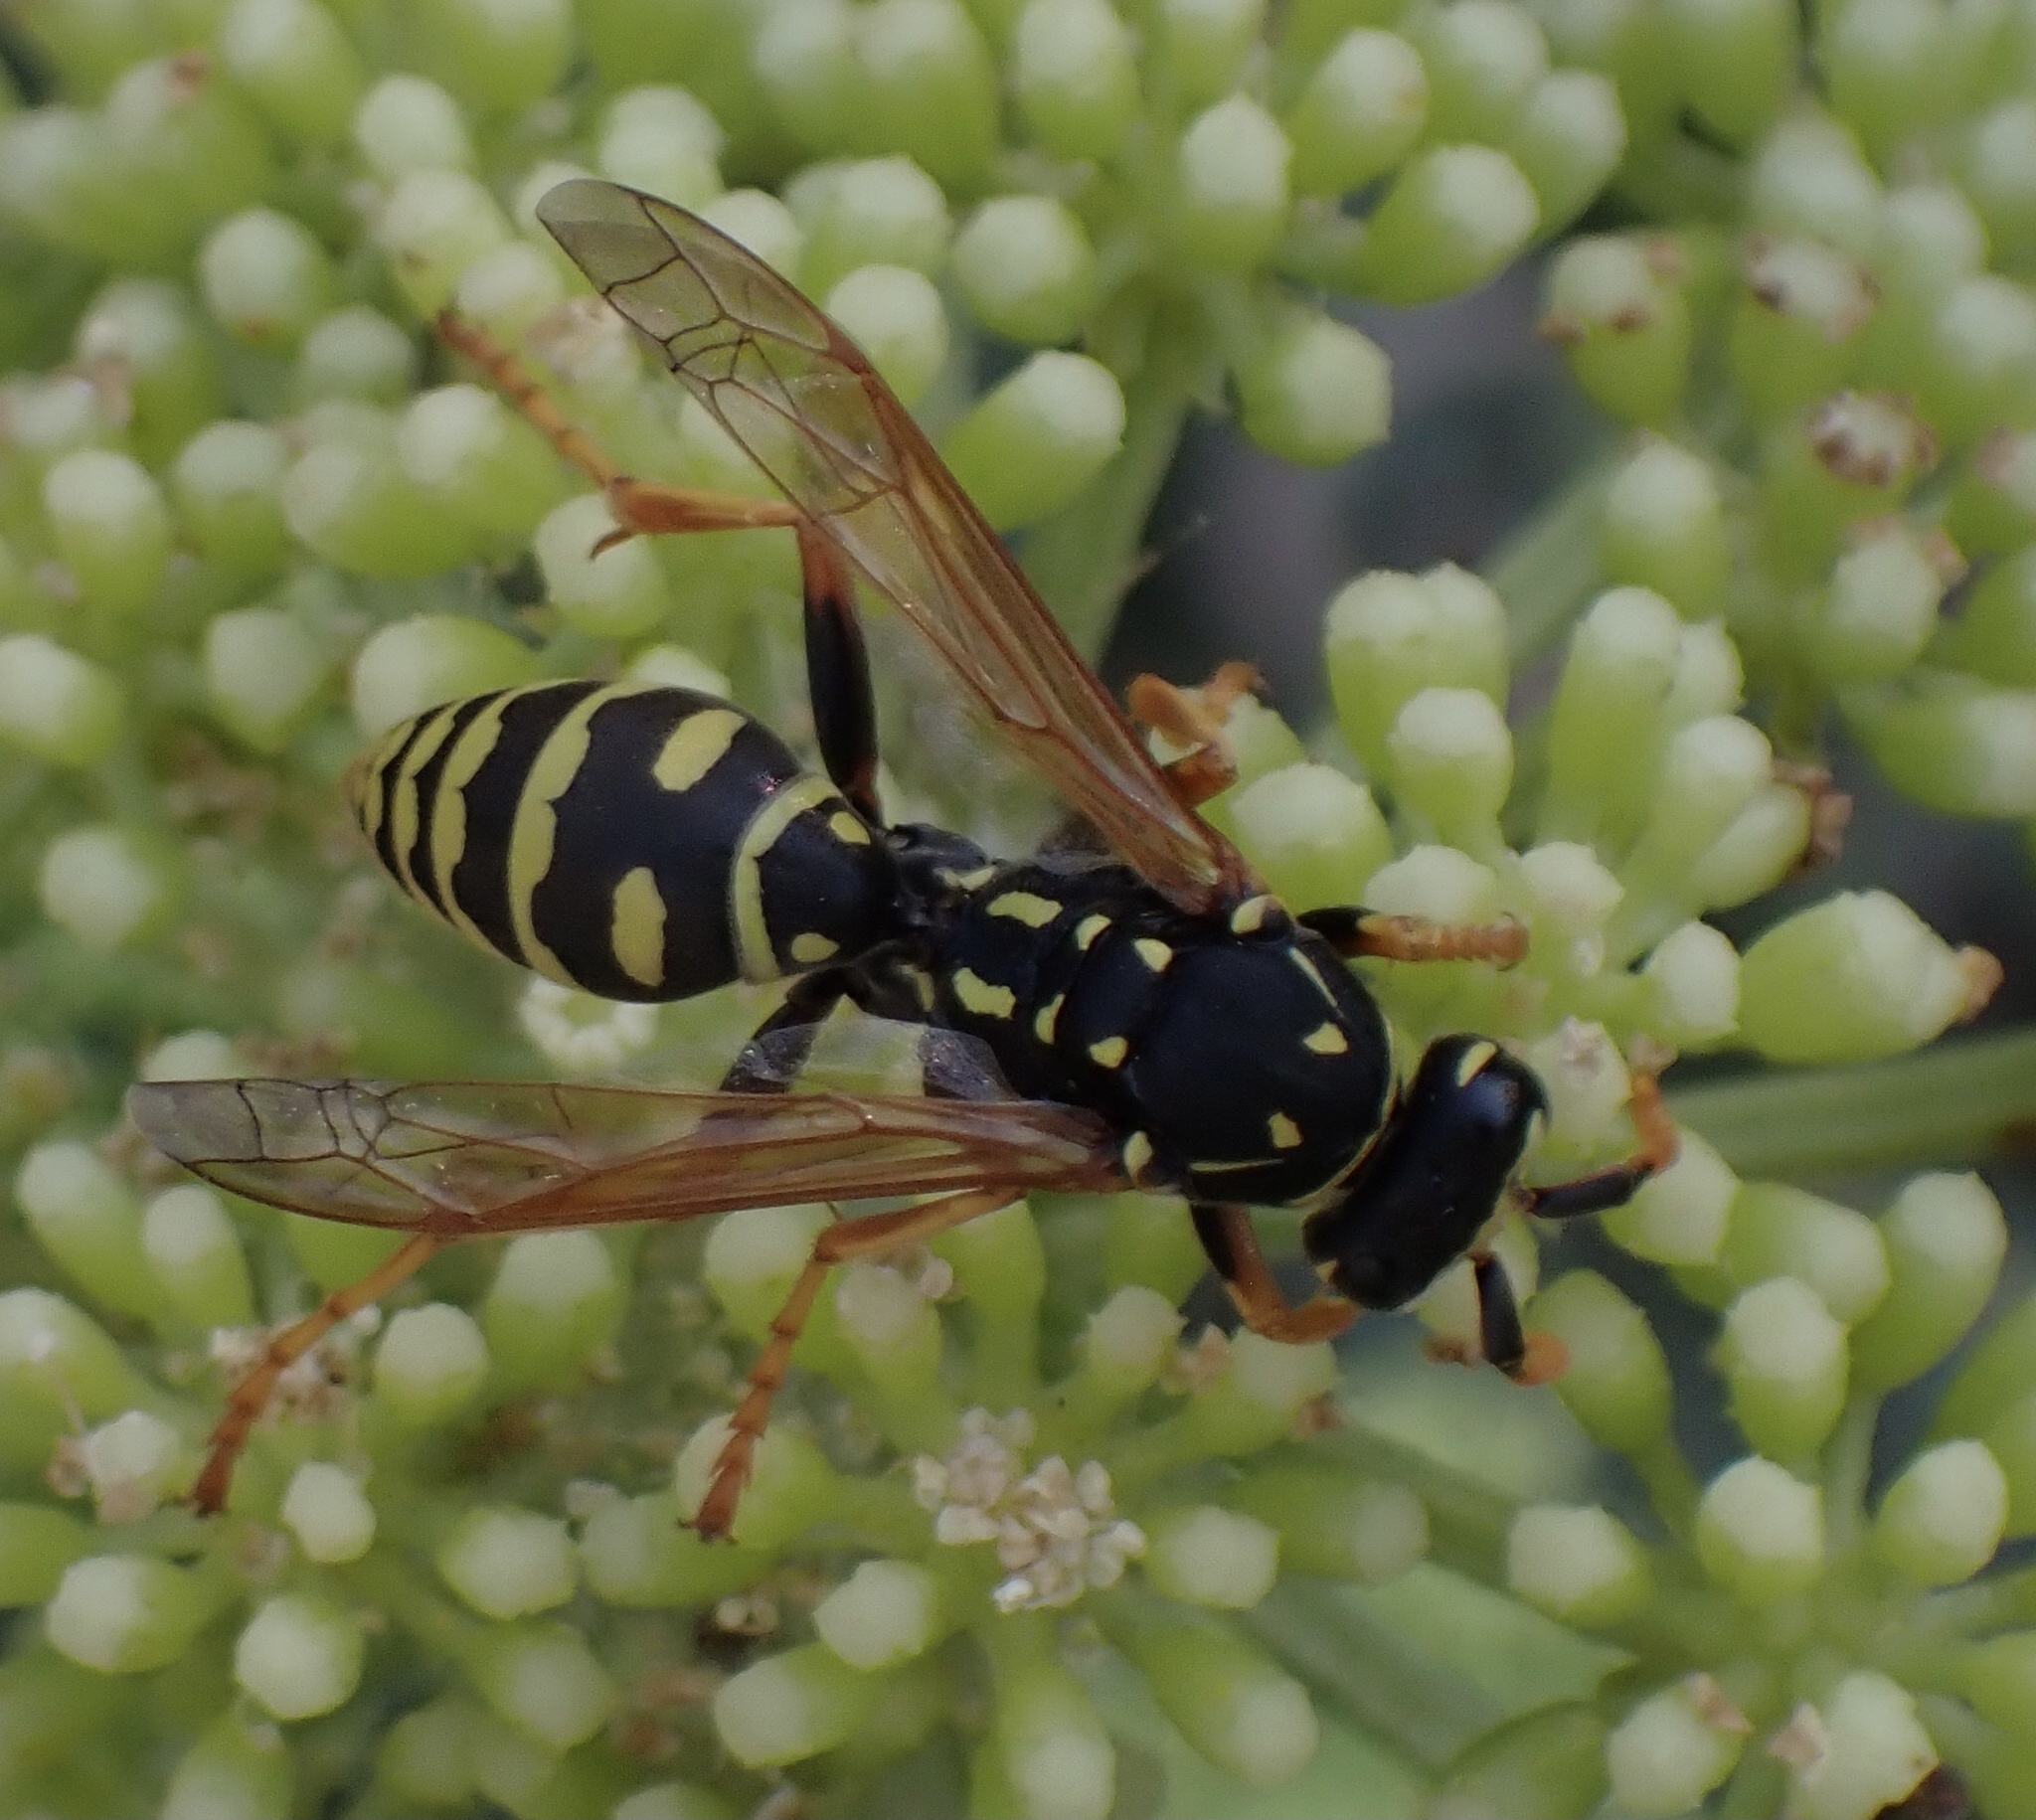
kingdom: Animalia
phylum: Arthropoda
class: Insecta
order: Hymenoptera
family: Eumenidae
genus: Polistes
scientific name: Polistes dominula
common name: Paper wasp
